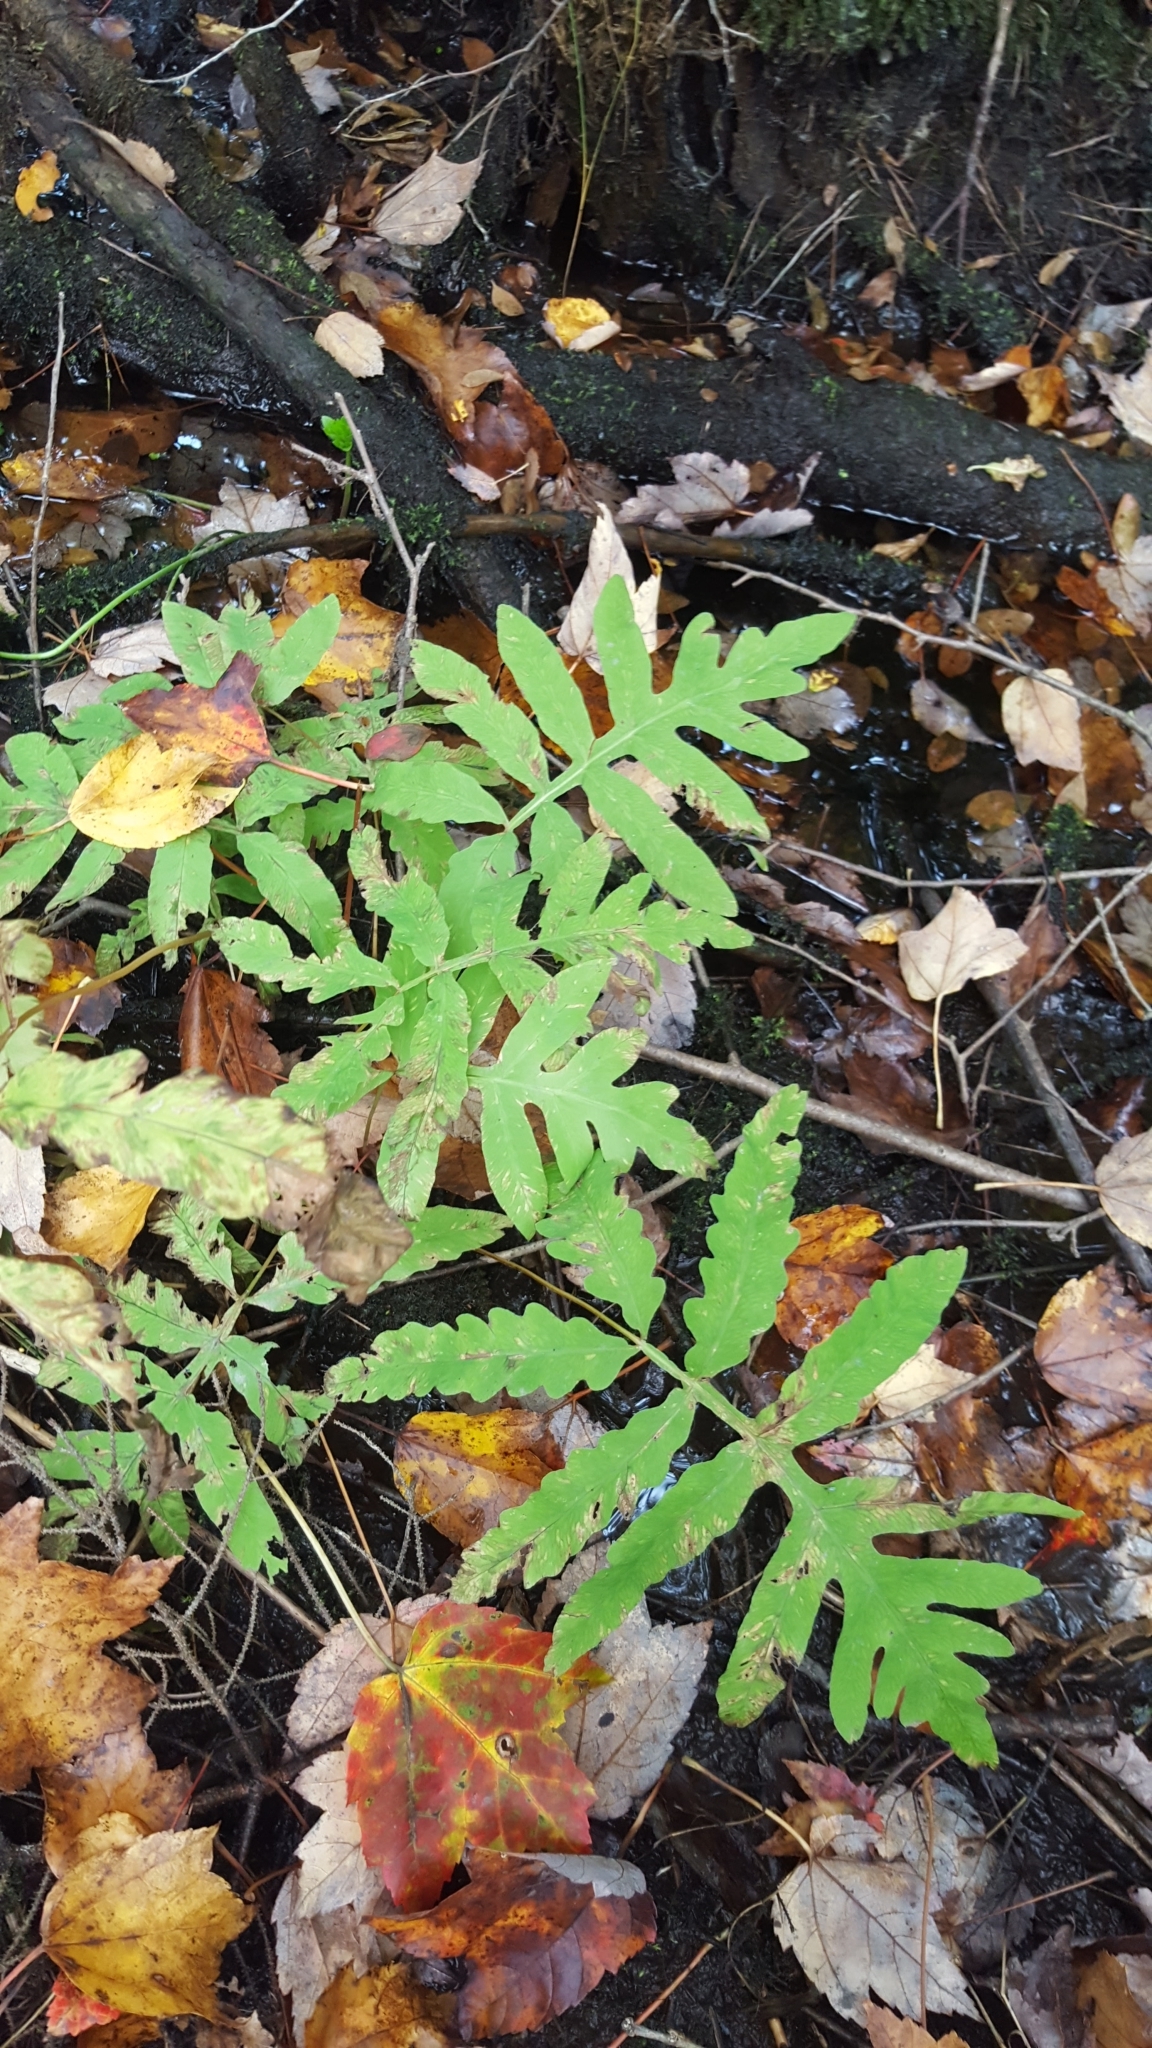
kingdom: Plantae
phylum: Tracheophyta
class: Polypodiopsida
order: Polypodiales
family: Onocleaceae
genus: Onoclea
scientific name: Onoclea sensibilis
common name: Sensitive fern
